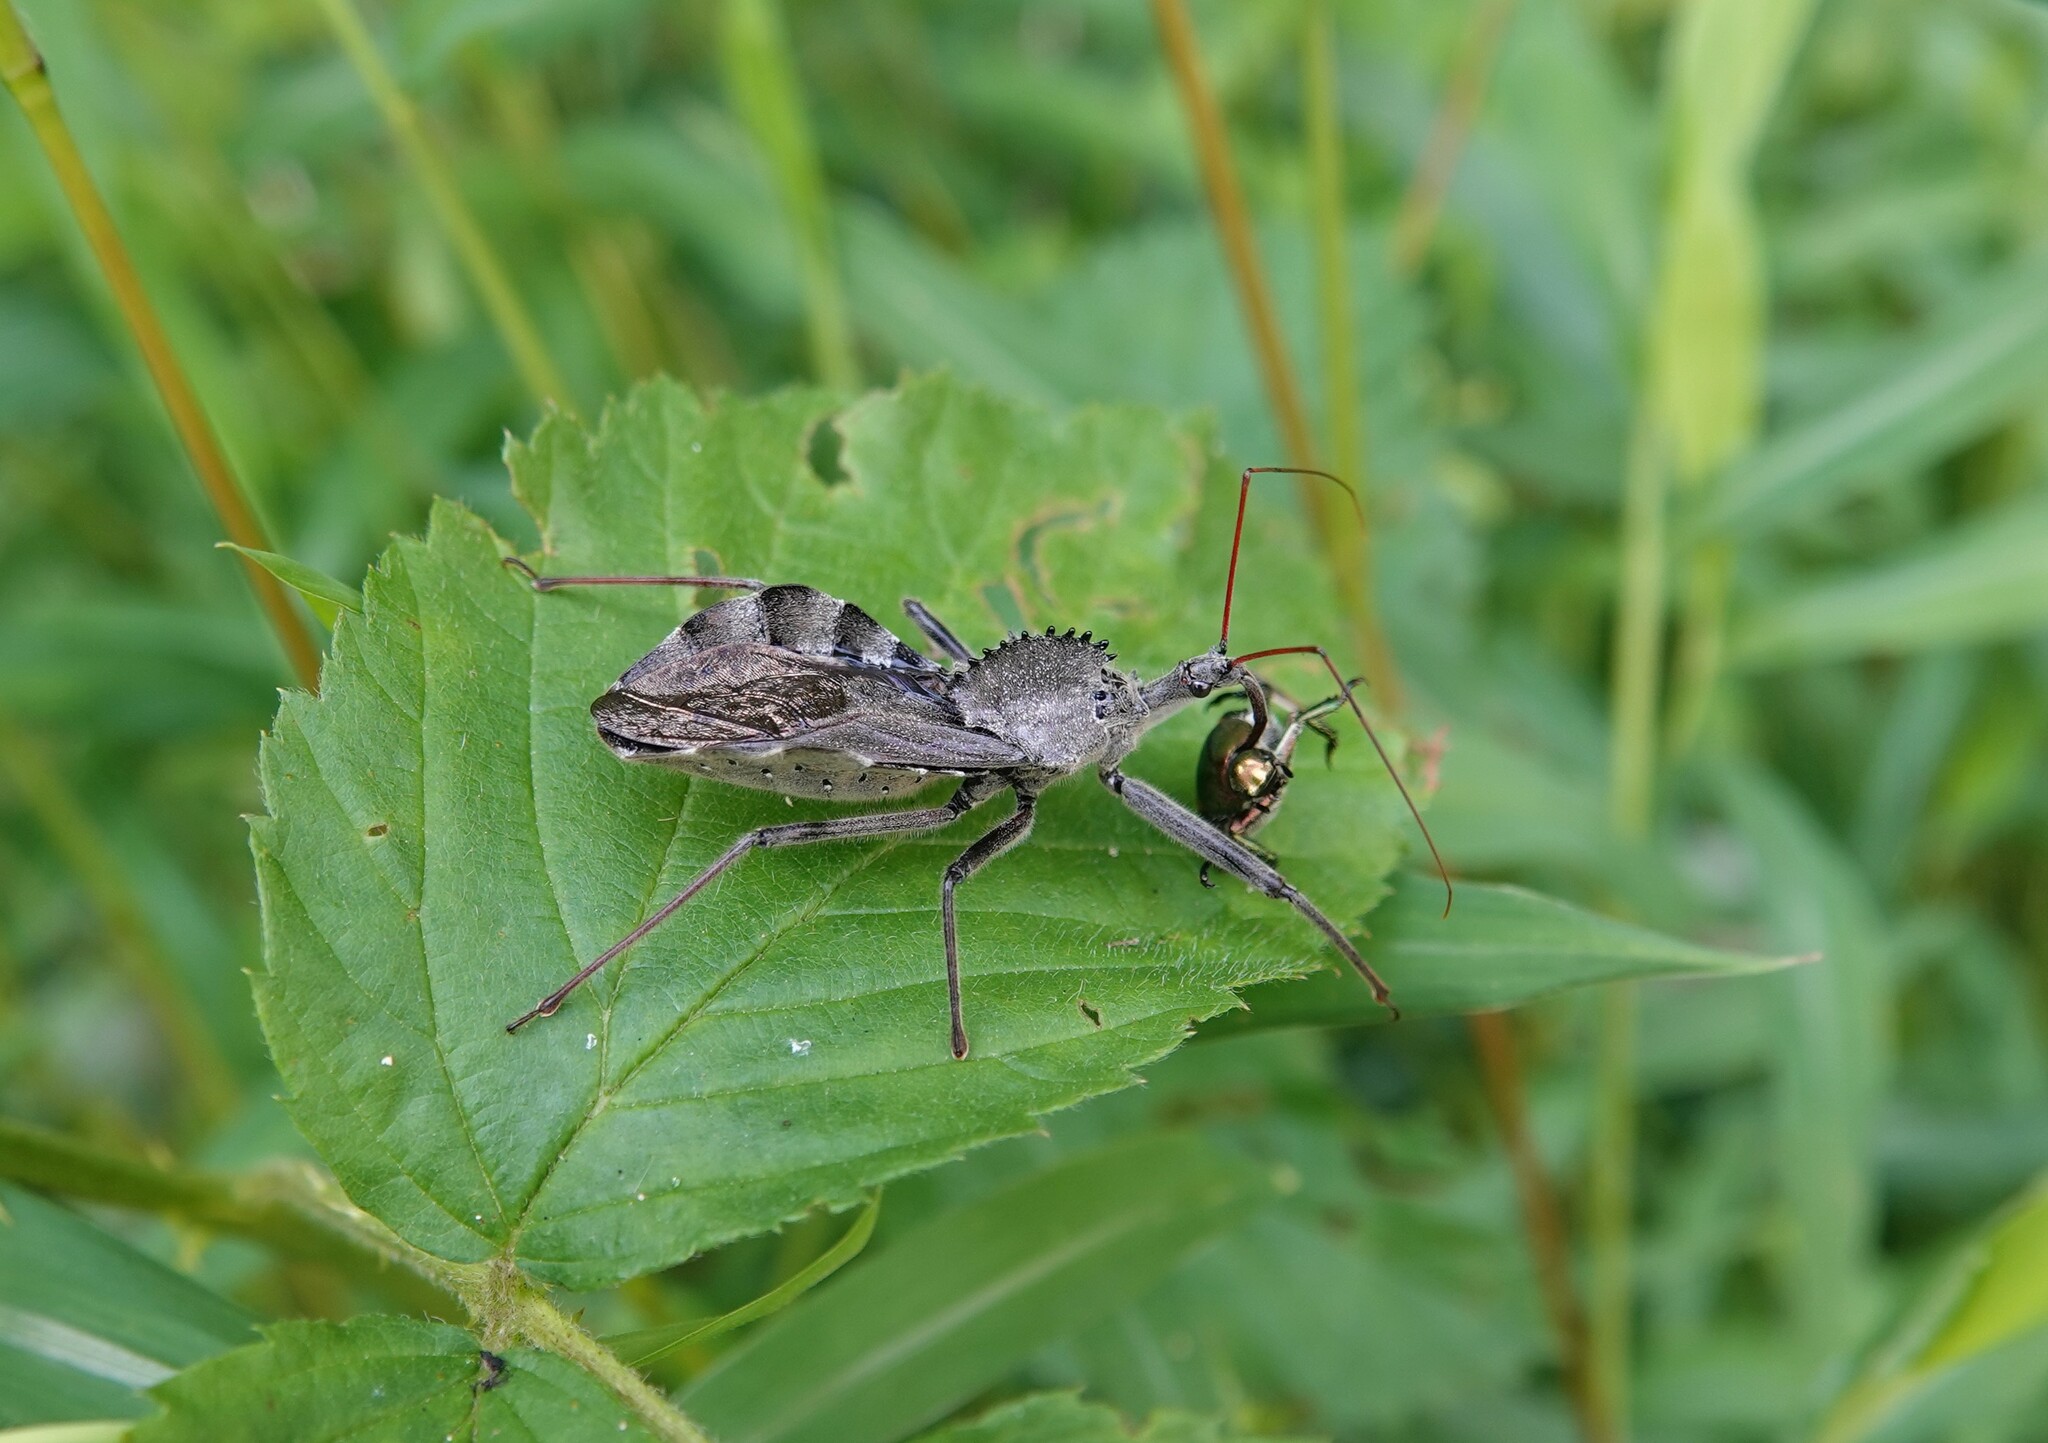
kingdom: Animalia
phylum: Arthropoda
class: Insecta
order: Hemiptera
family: Reduviidae
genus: Arilus
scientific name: Arilus cristatus
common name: North american wheel bug
